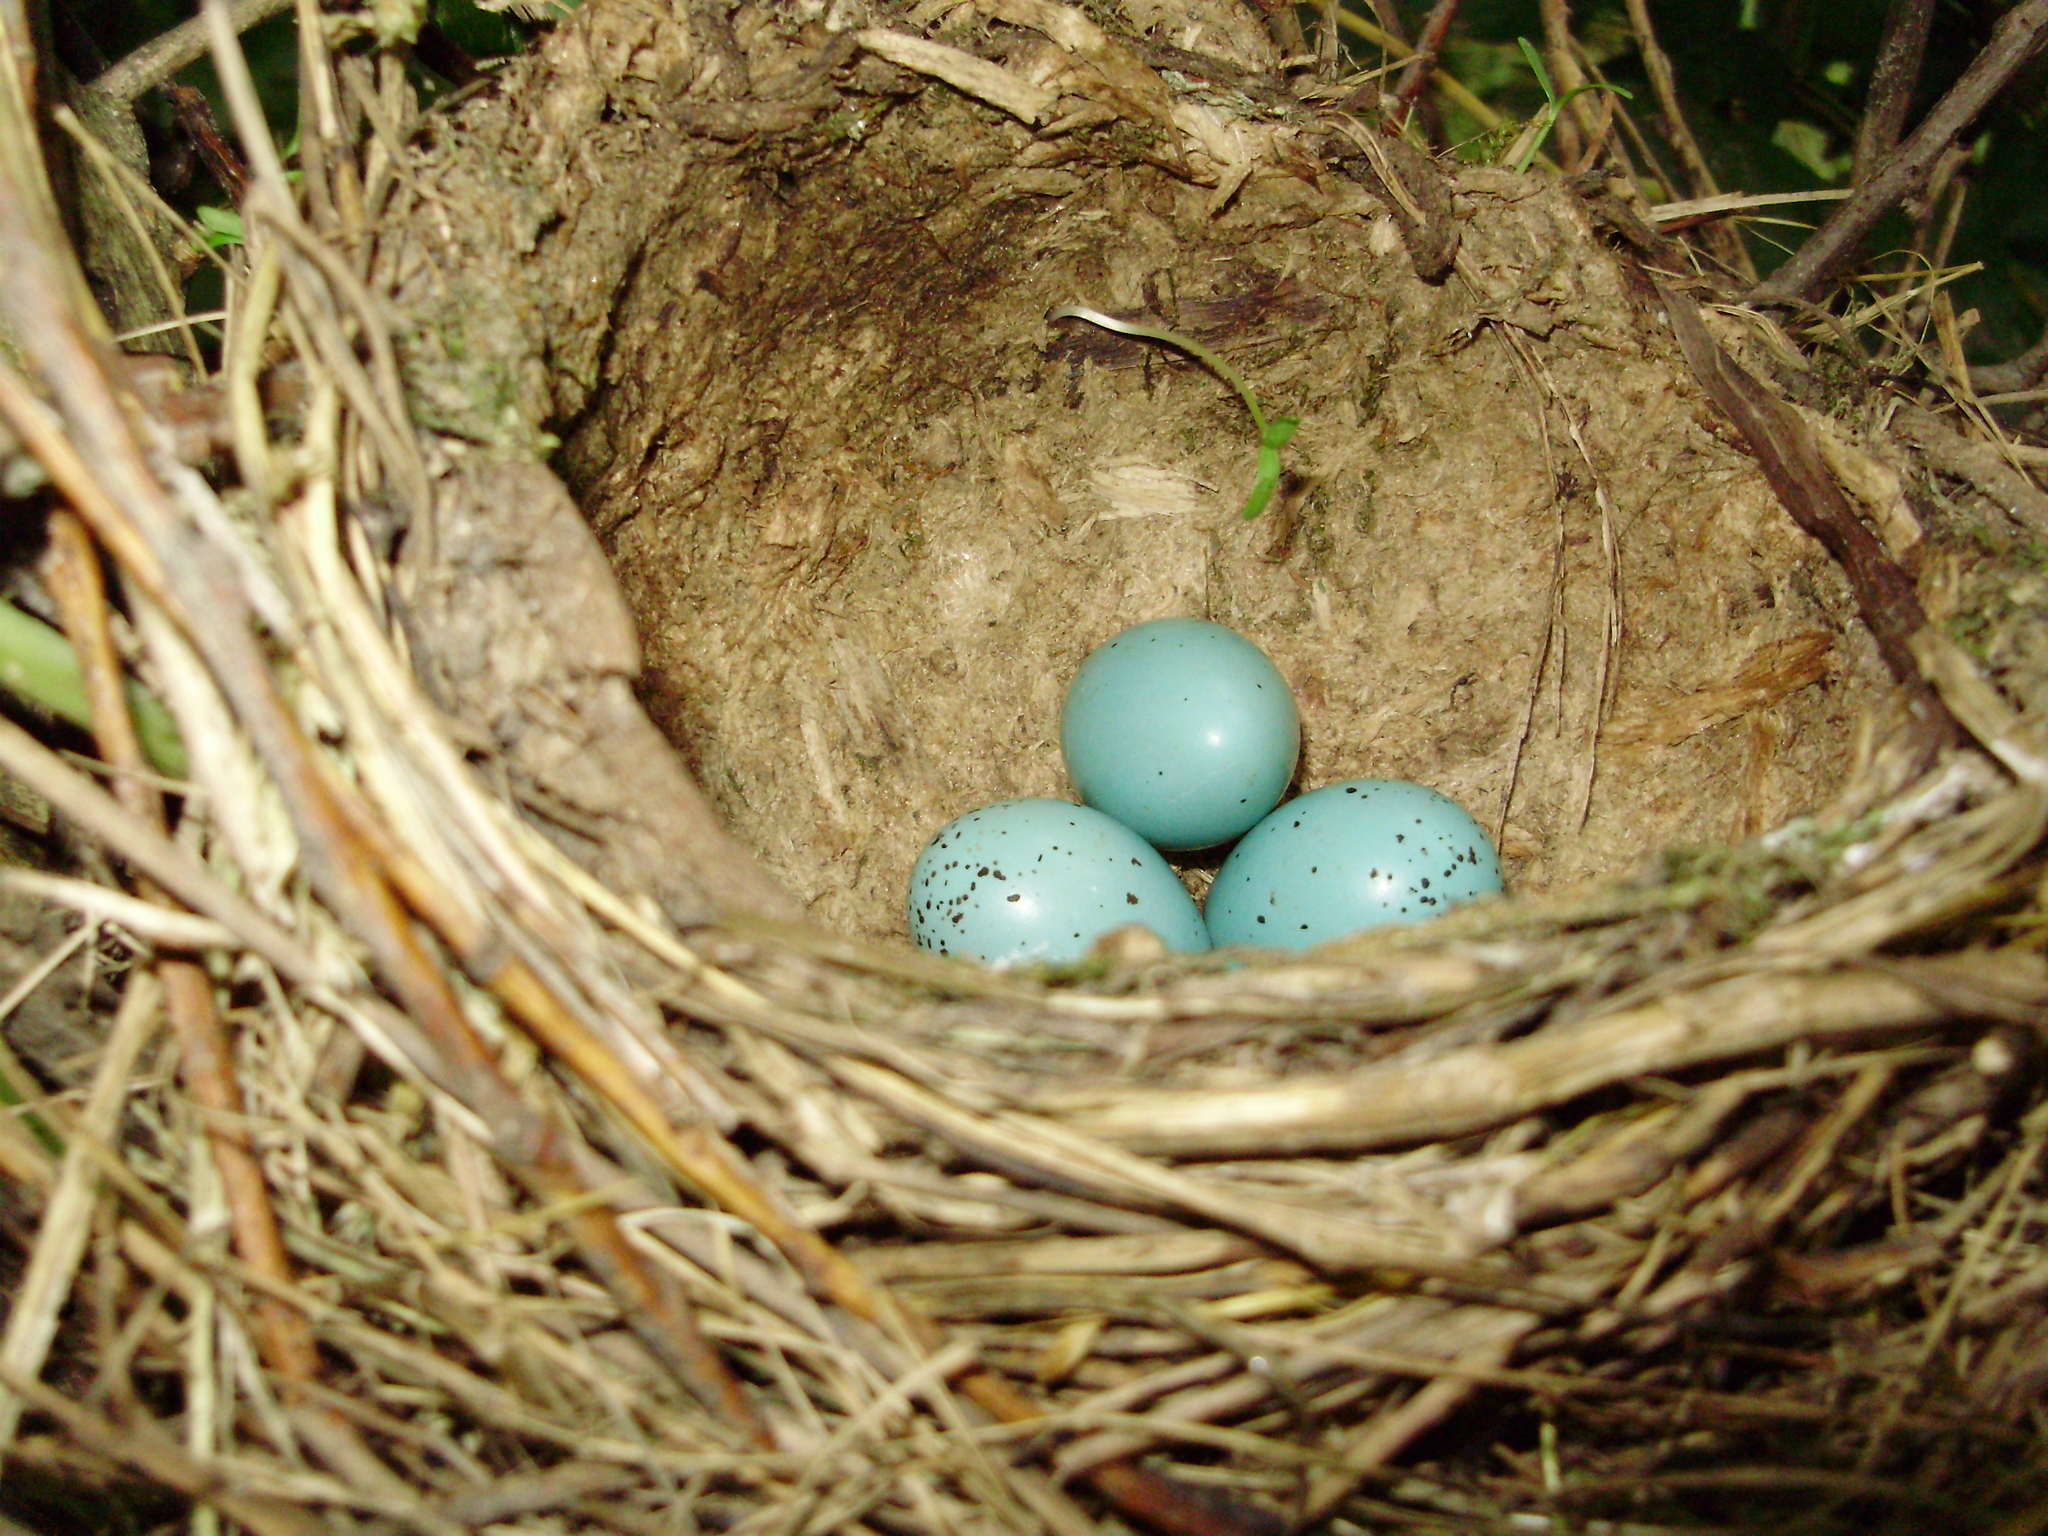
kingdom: Animalia
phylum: Chordata
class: Aves
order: Passeriformes
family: Turdidae
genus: Turdus
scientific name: Turdus philomelos
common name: Song thrush
